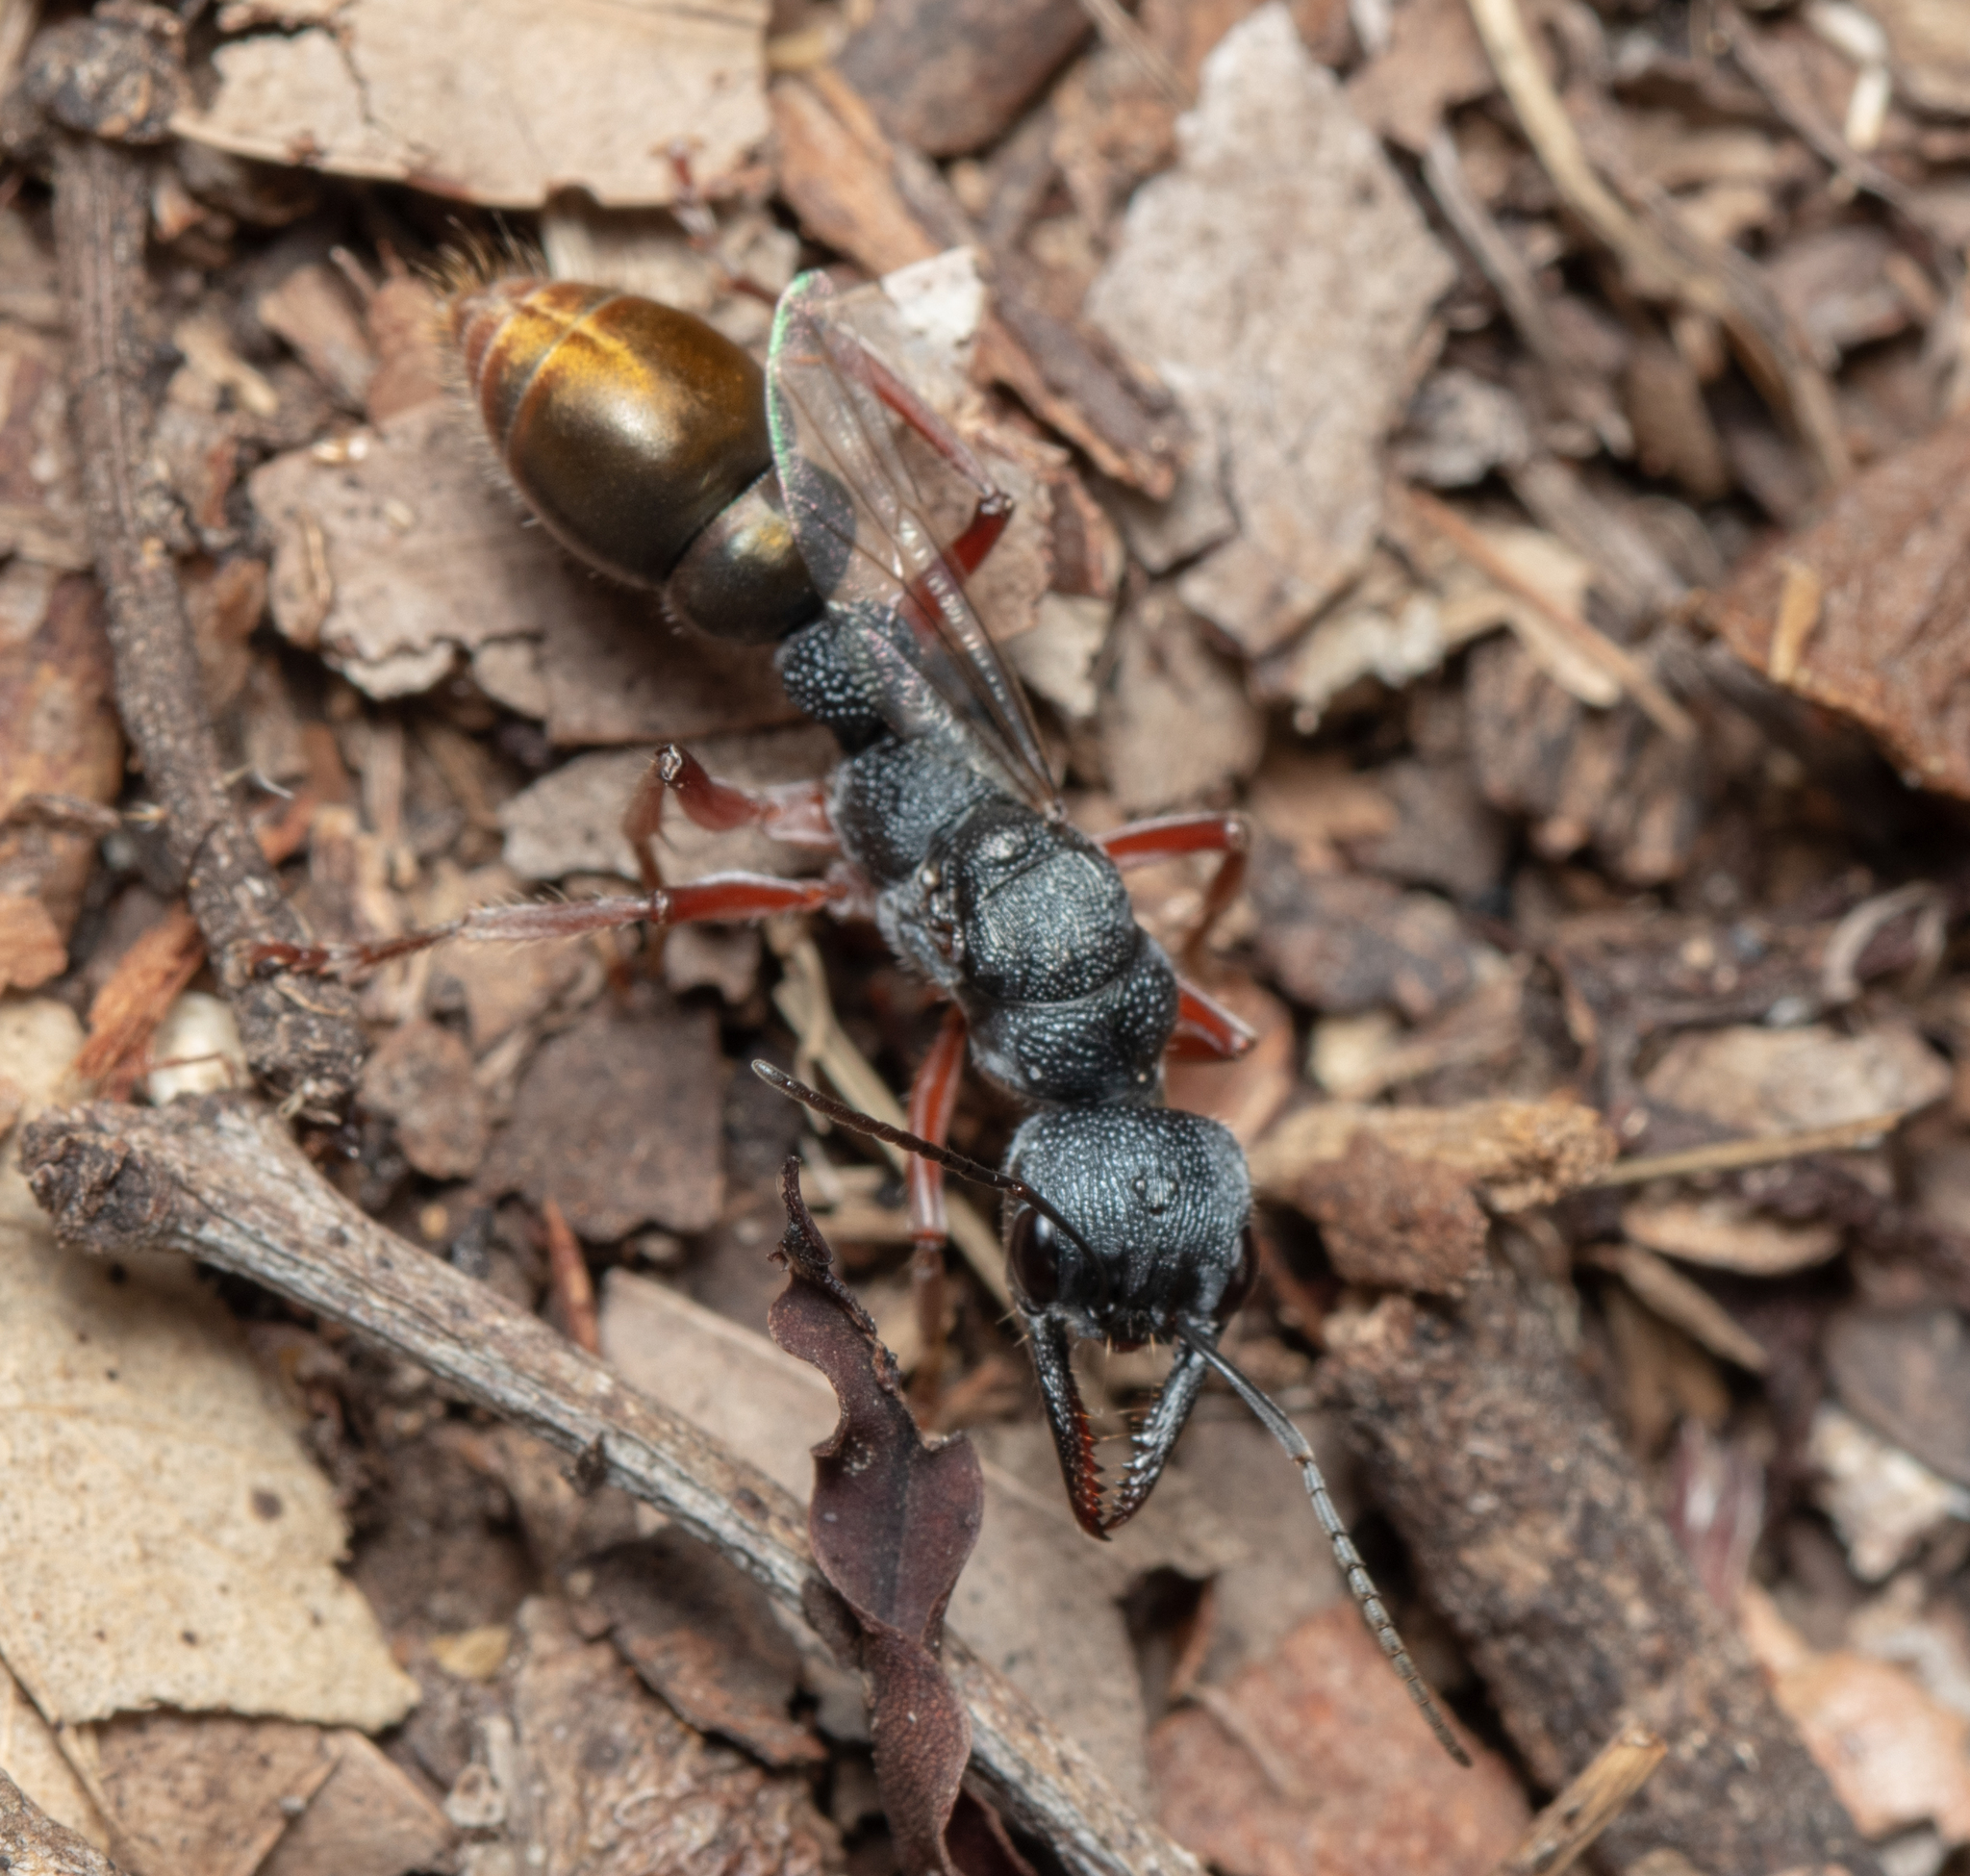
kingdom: Animalia
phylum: Arthropoda
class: Insecta
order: Hymenoptera
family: Formicidae
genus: Myrmecia
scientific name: Myrmecia fulviculis
